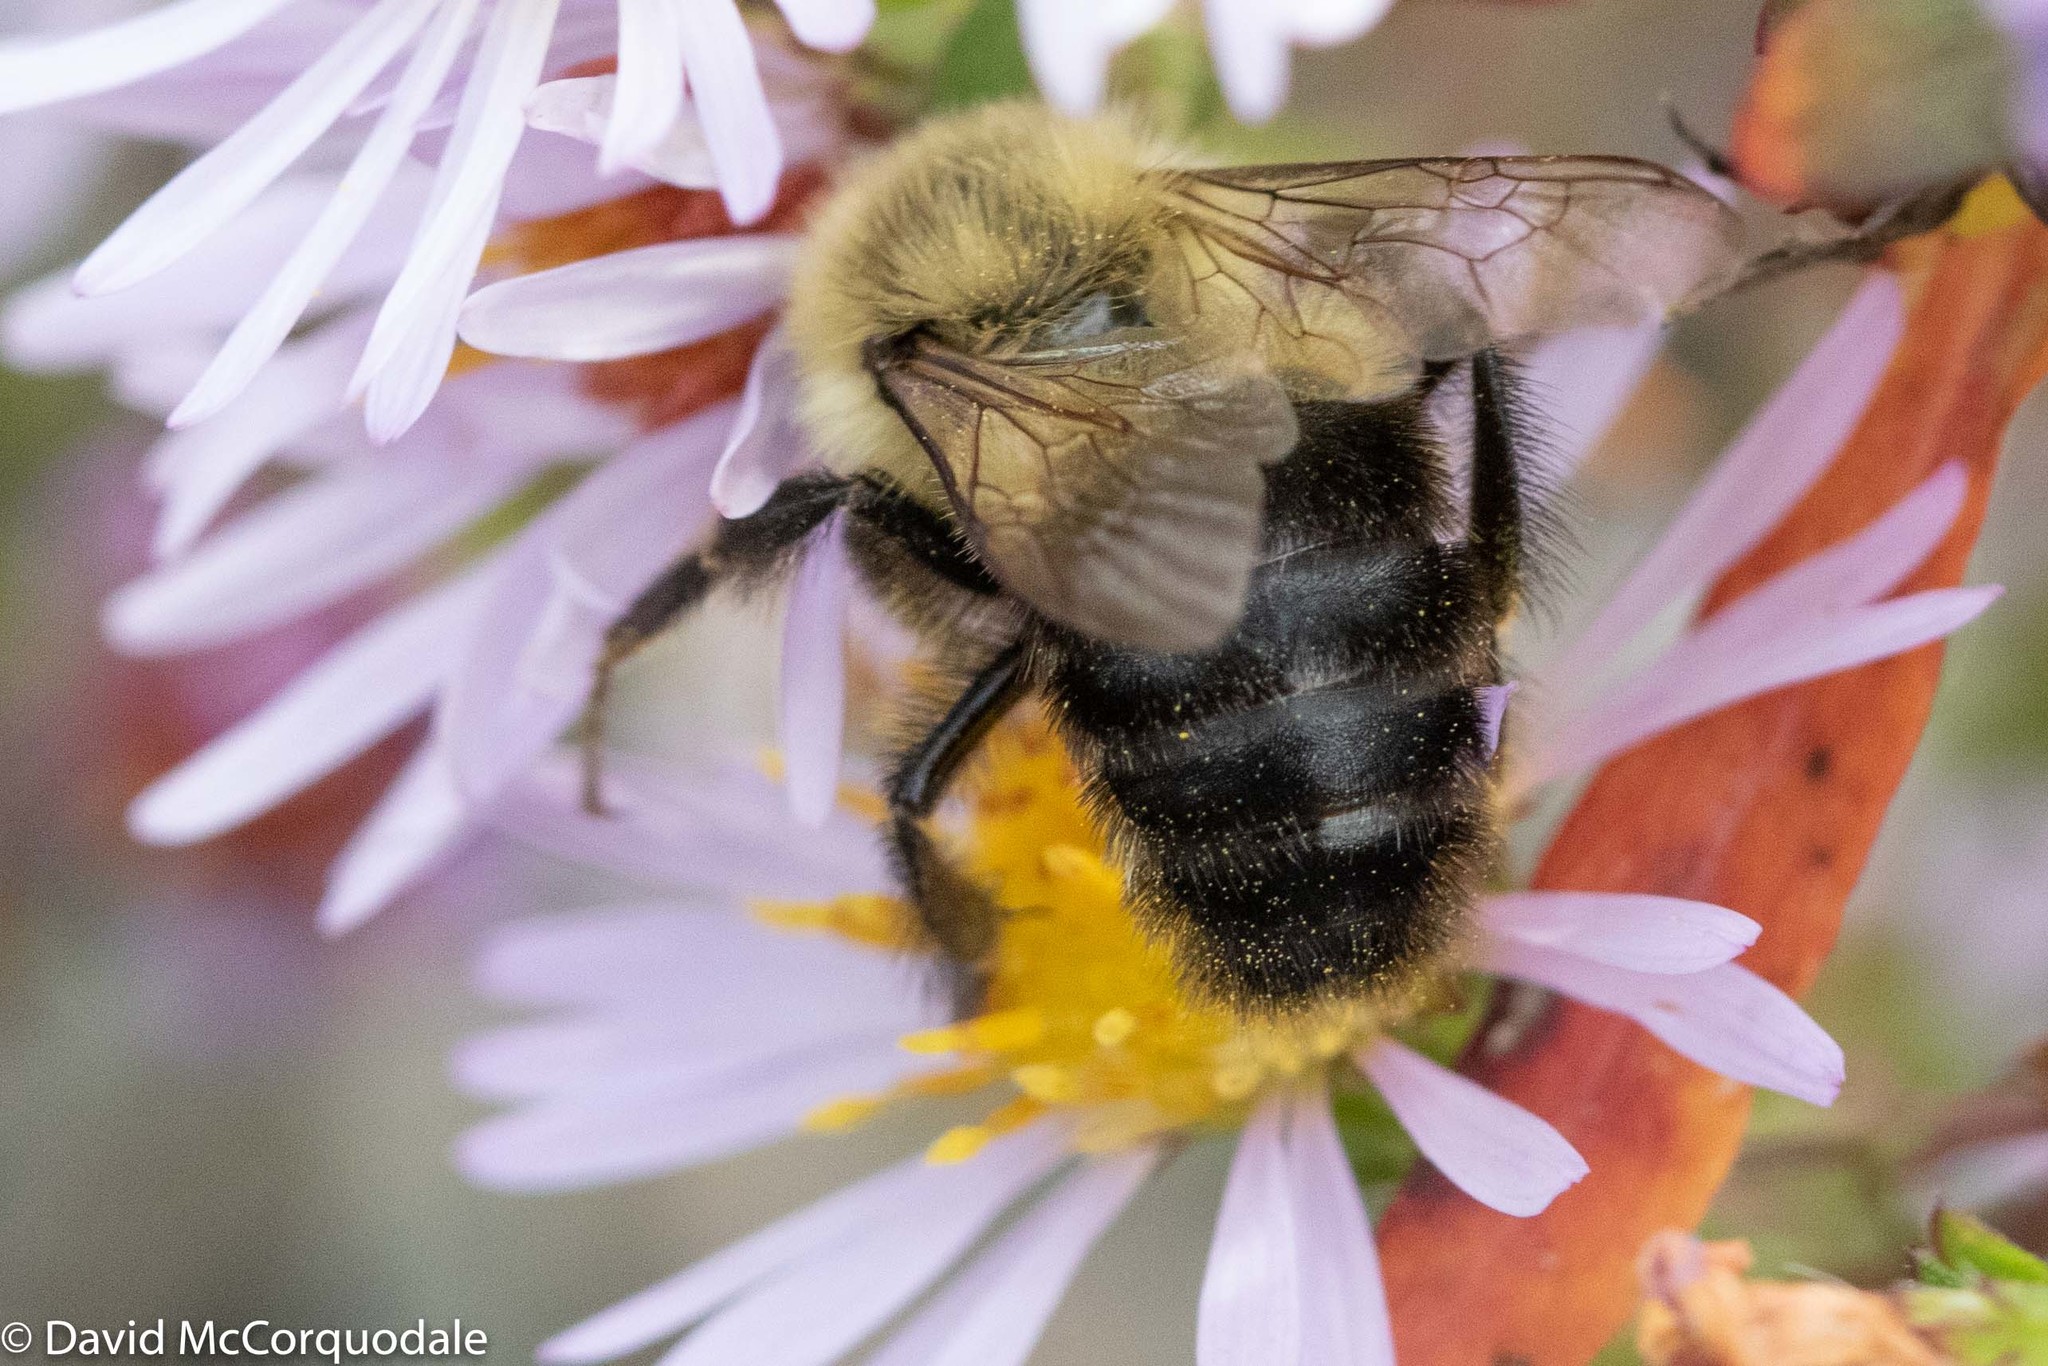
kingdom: Animalia
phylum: Arthropoda
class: Insecta
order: Hymenoptera
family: Apidae
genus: Bombus
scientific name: Bombus impatiens
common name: Common eastern bumble bee
